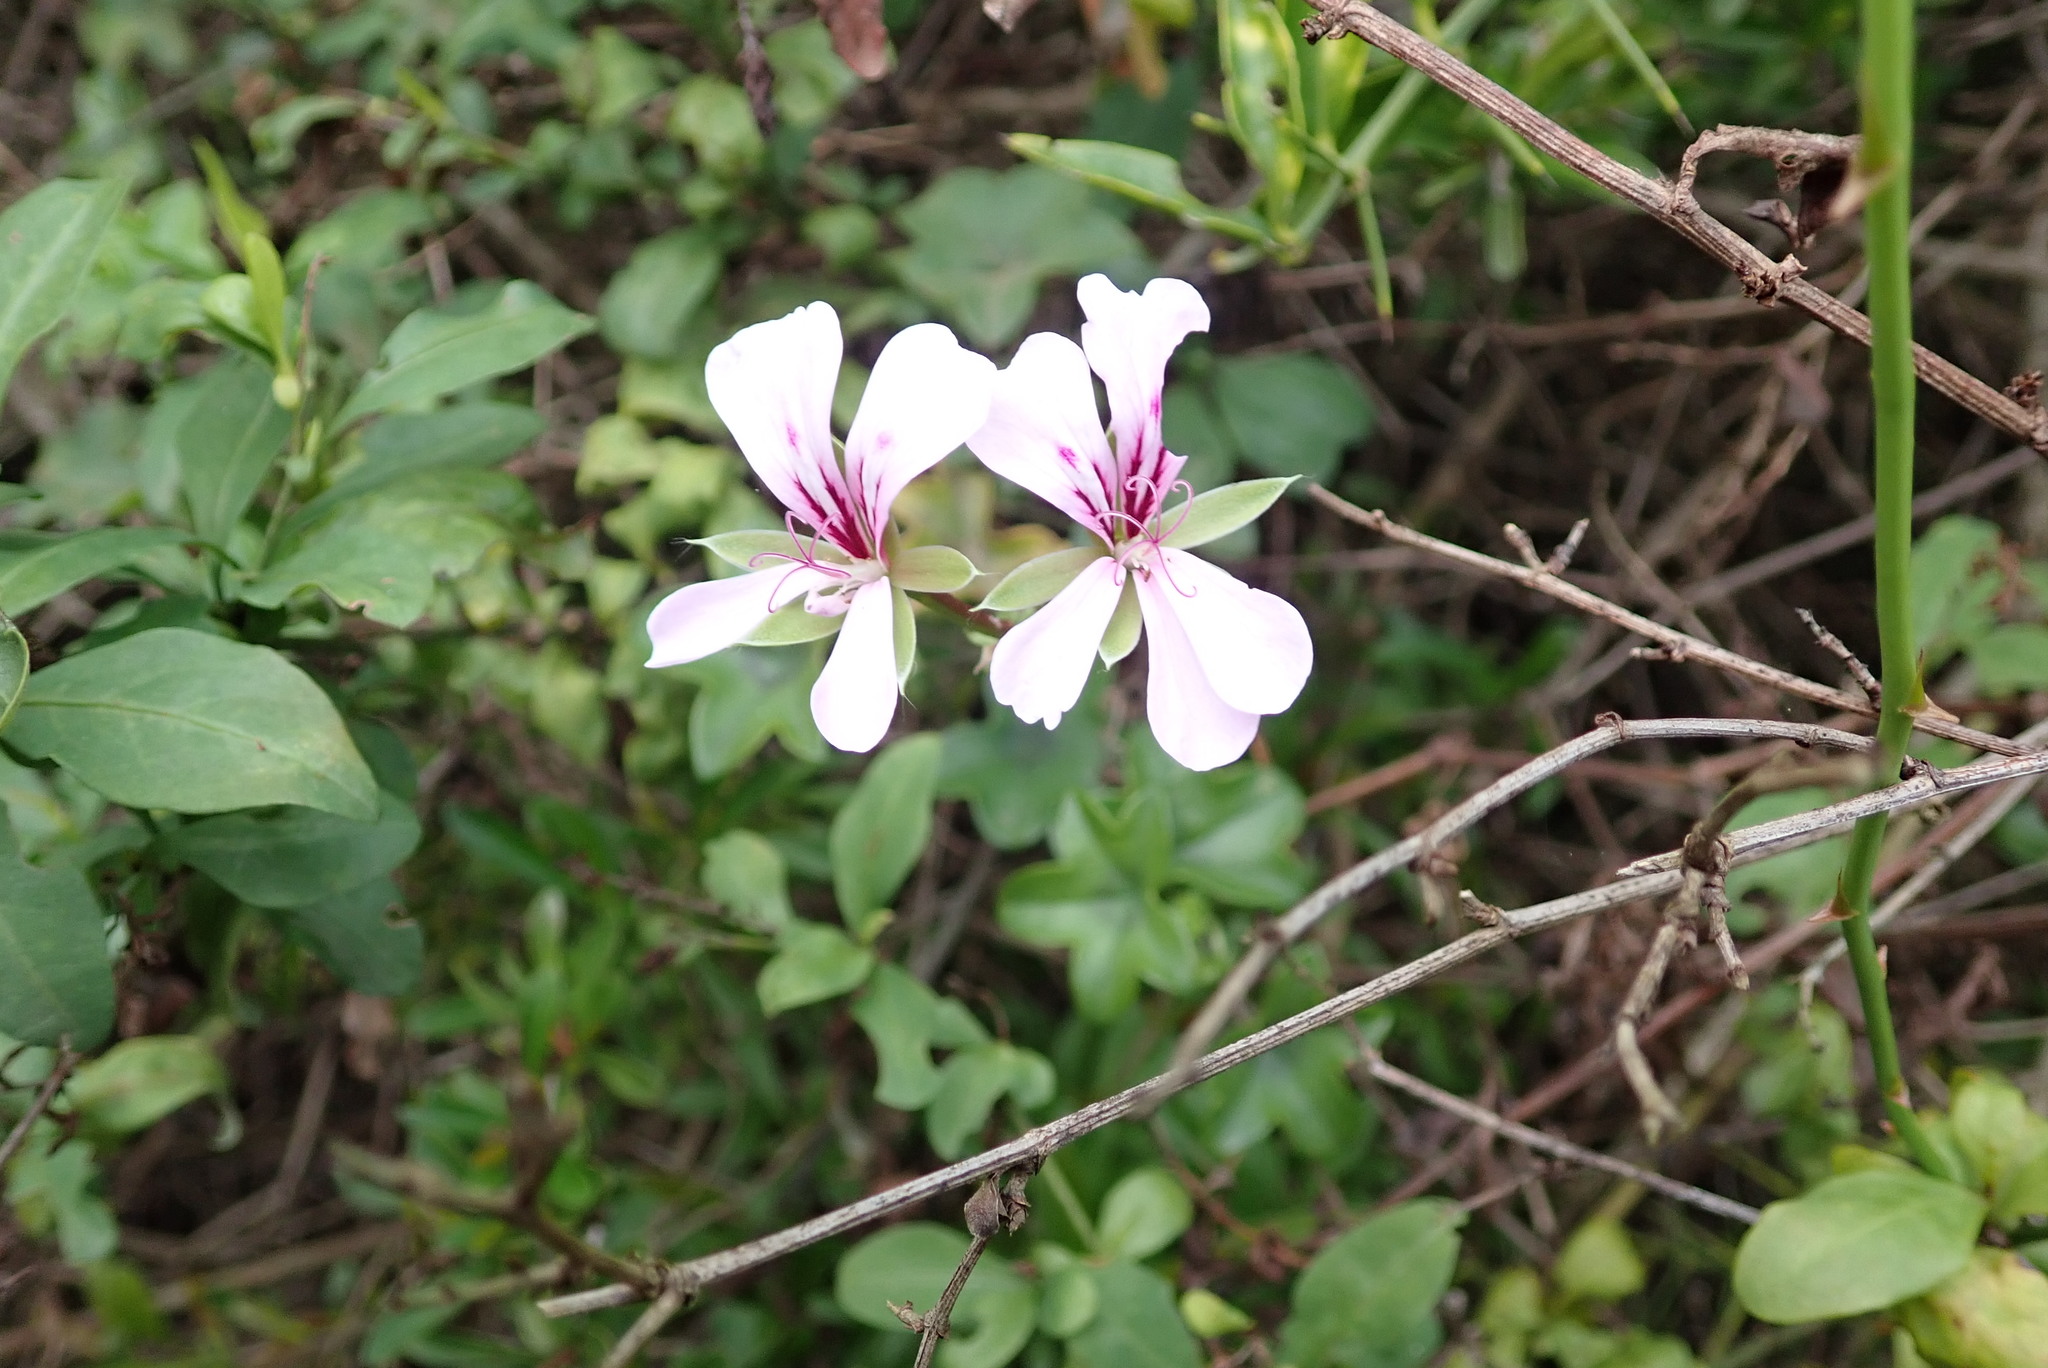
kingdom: Plantae
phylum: Tracheophyta
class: Magnoliopsida
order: Geraniales
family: Geraniaceae
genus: Pelargonium
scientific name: Pelargonium peltatum
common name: Ivyleaf geranium
